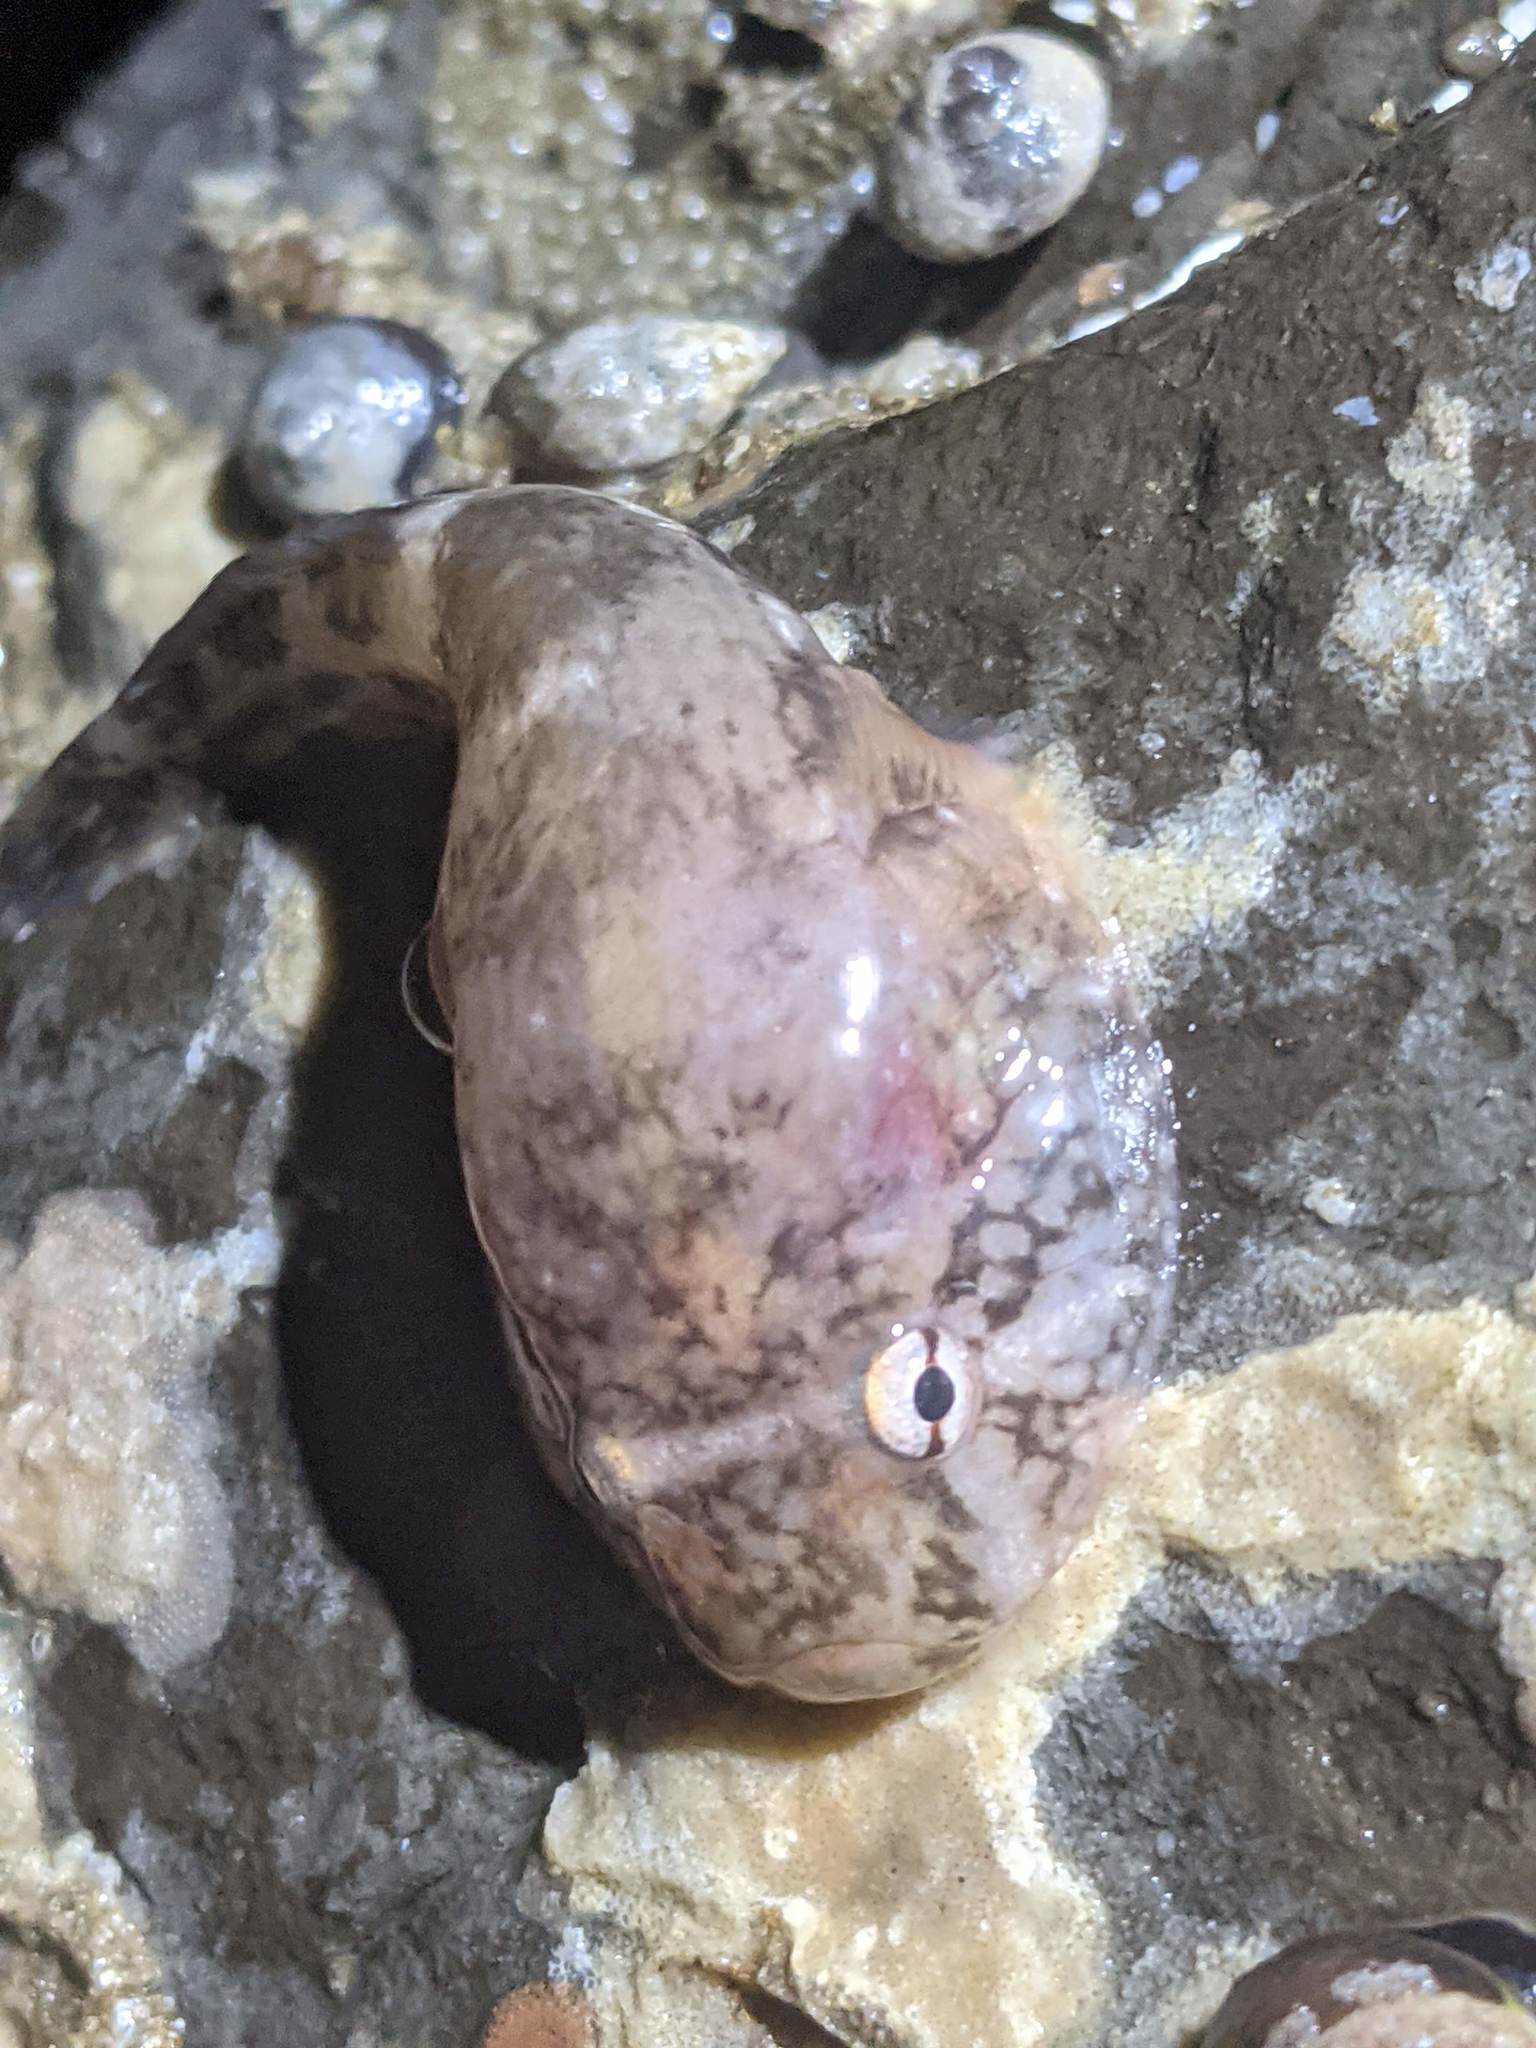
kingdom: Animalia
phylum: Chordata
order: Gobiesociformes
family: Gobiesocidae
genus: Gobiesox
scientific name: Gobiesox maeandricus
